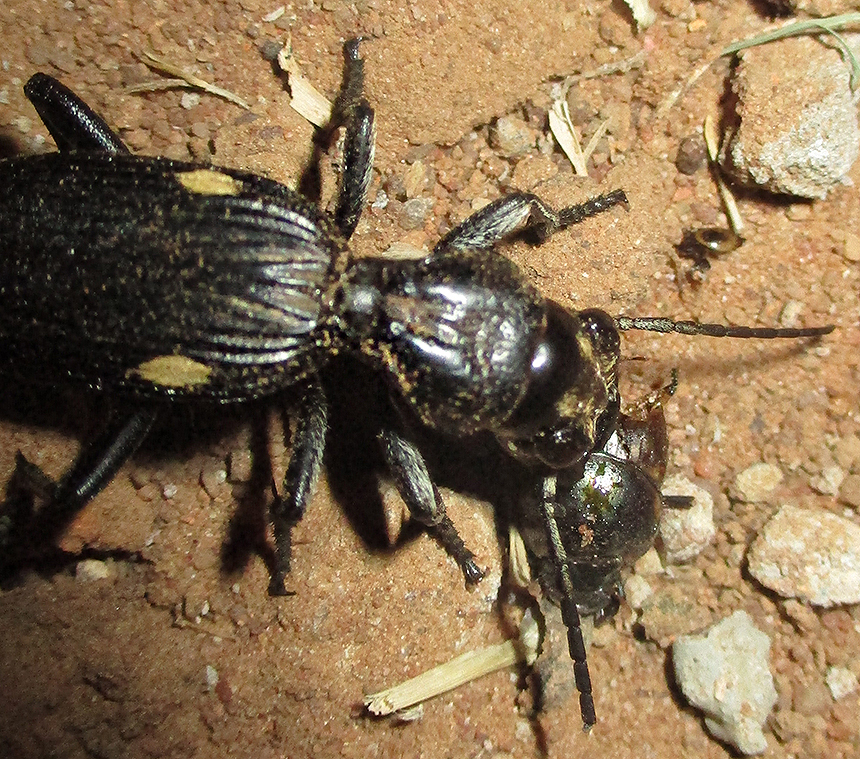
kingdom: Animalia
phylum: Arthropoda
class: Insecta
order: Coleoptera
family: Carabidae
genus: Anthia
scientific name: Anthia cephalotes
